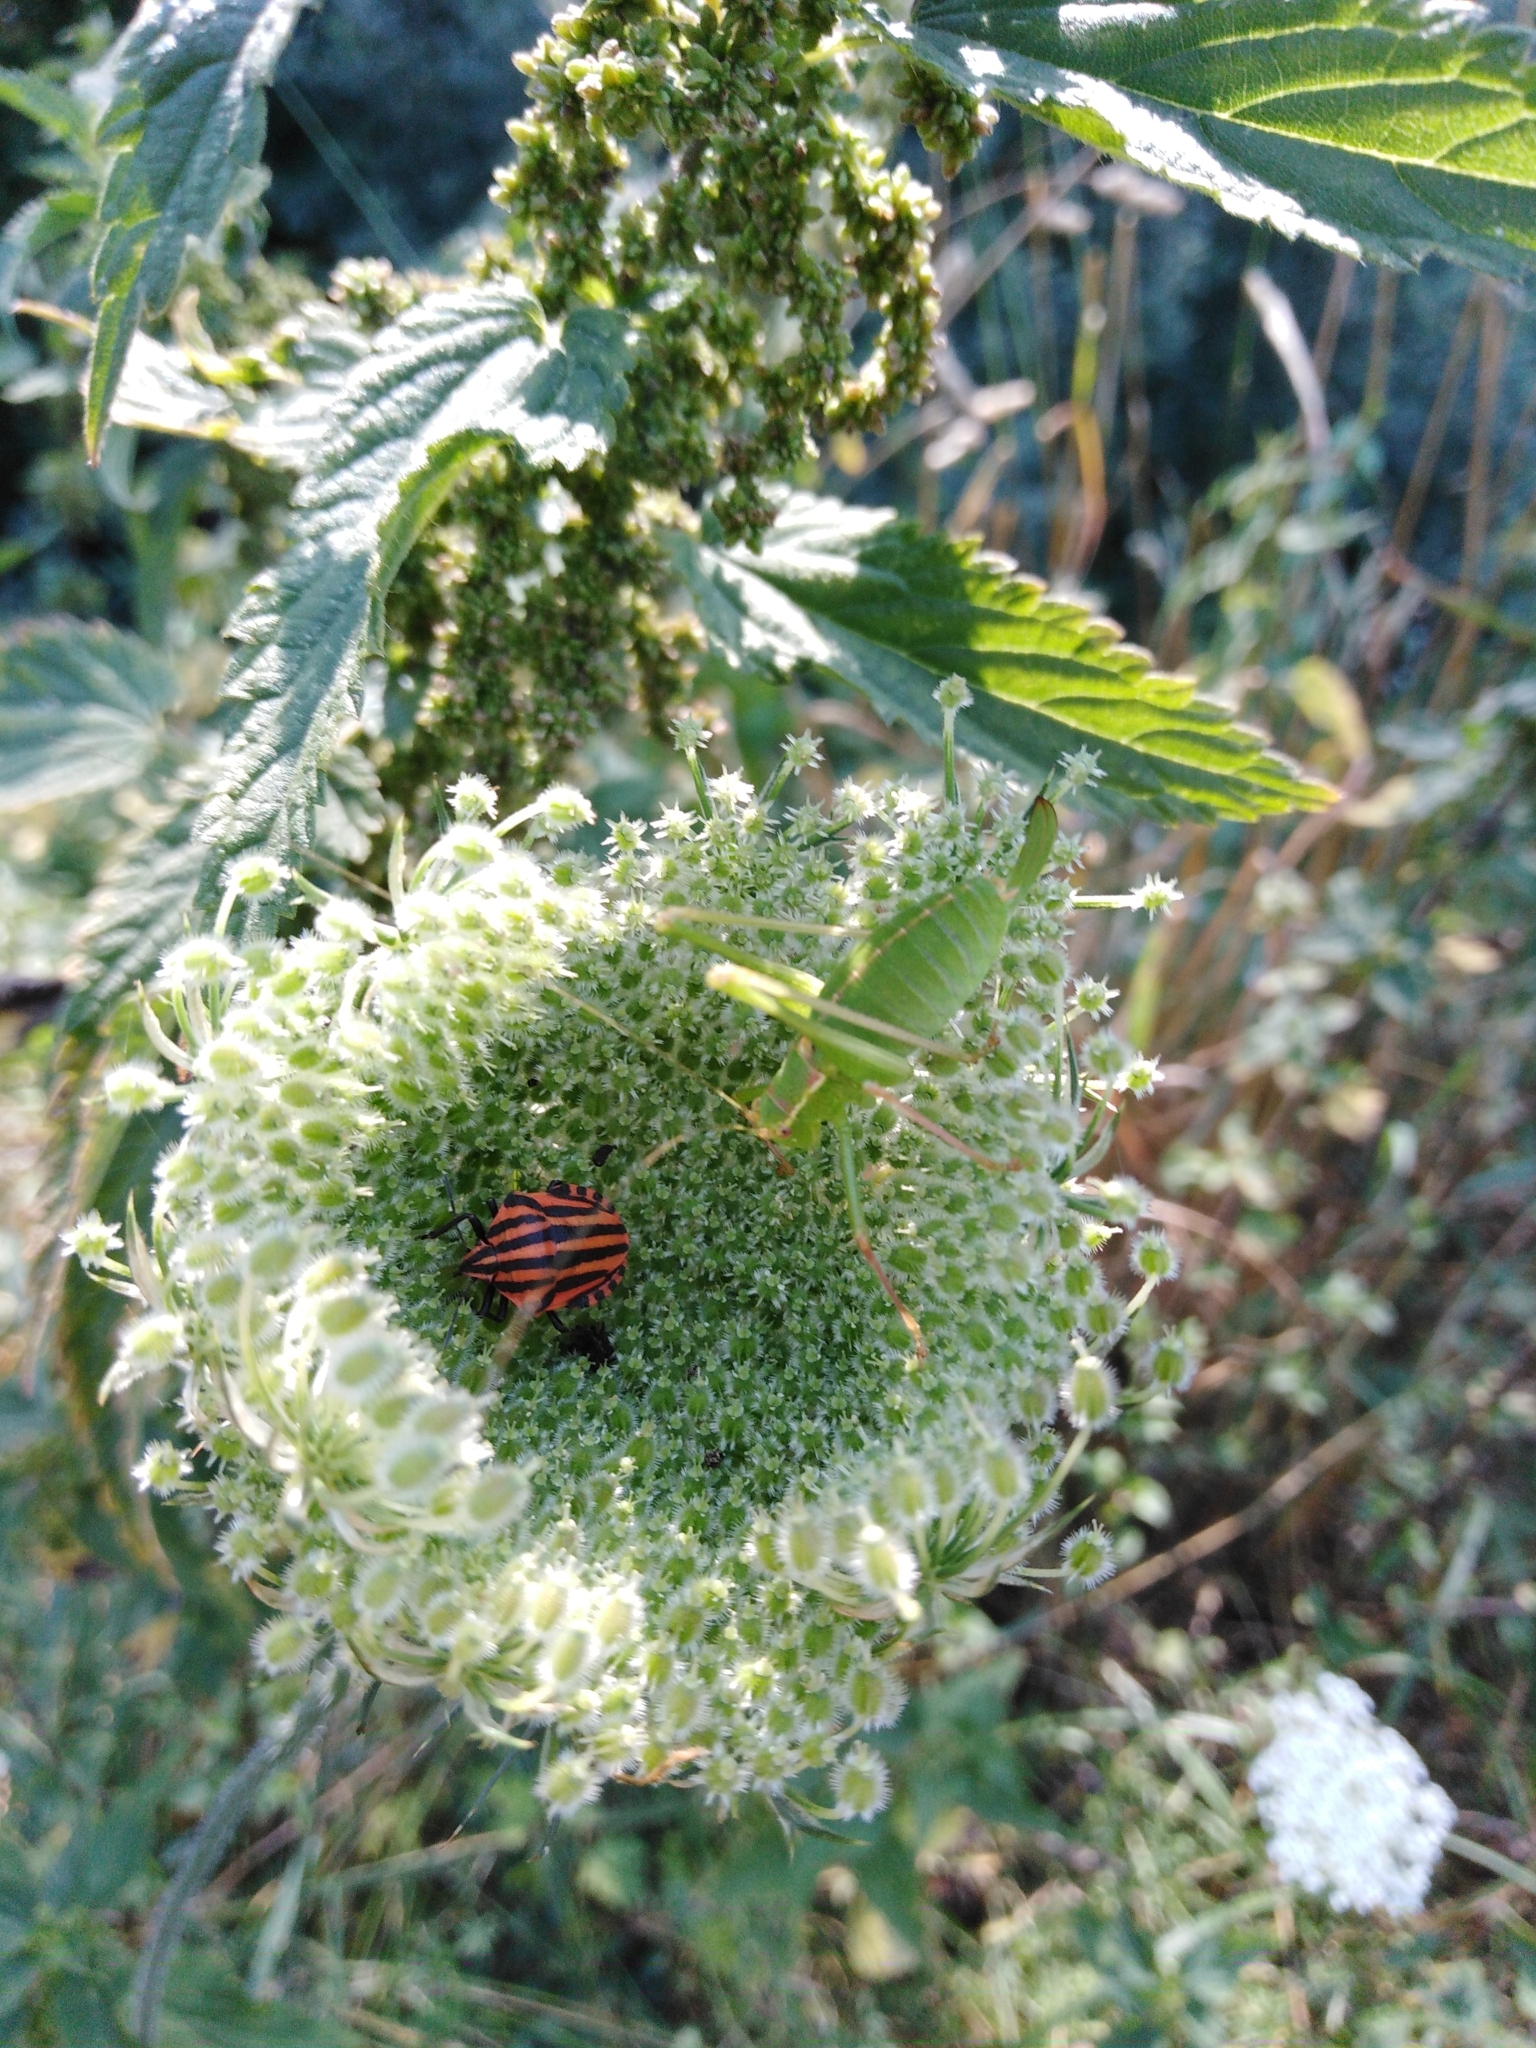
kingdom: Animalia
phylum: Arthropoda
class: Insecta
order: Hemiptera
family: Pentatomidae
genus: Graphosoma
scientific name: Graphosoma italicum
